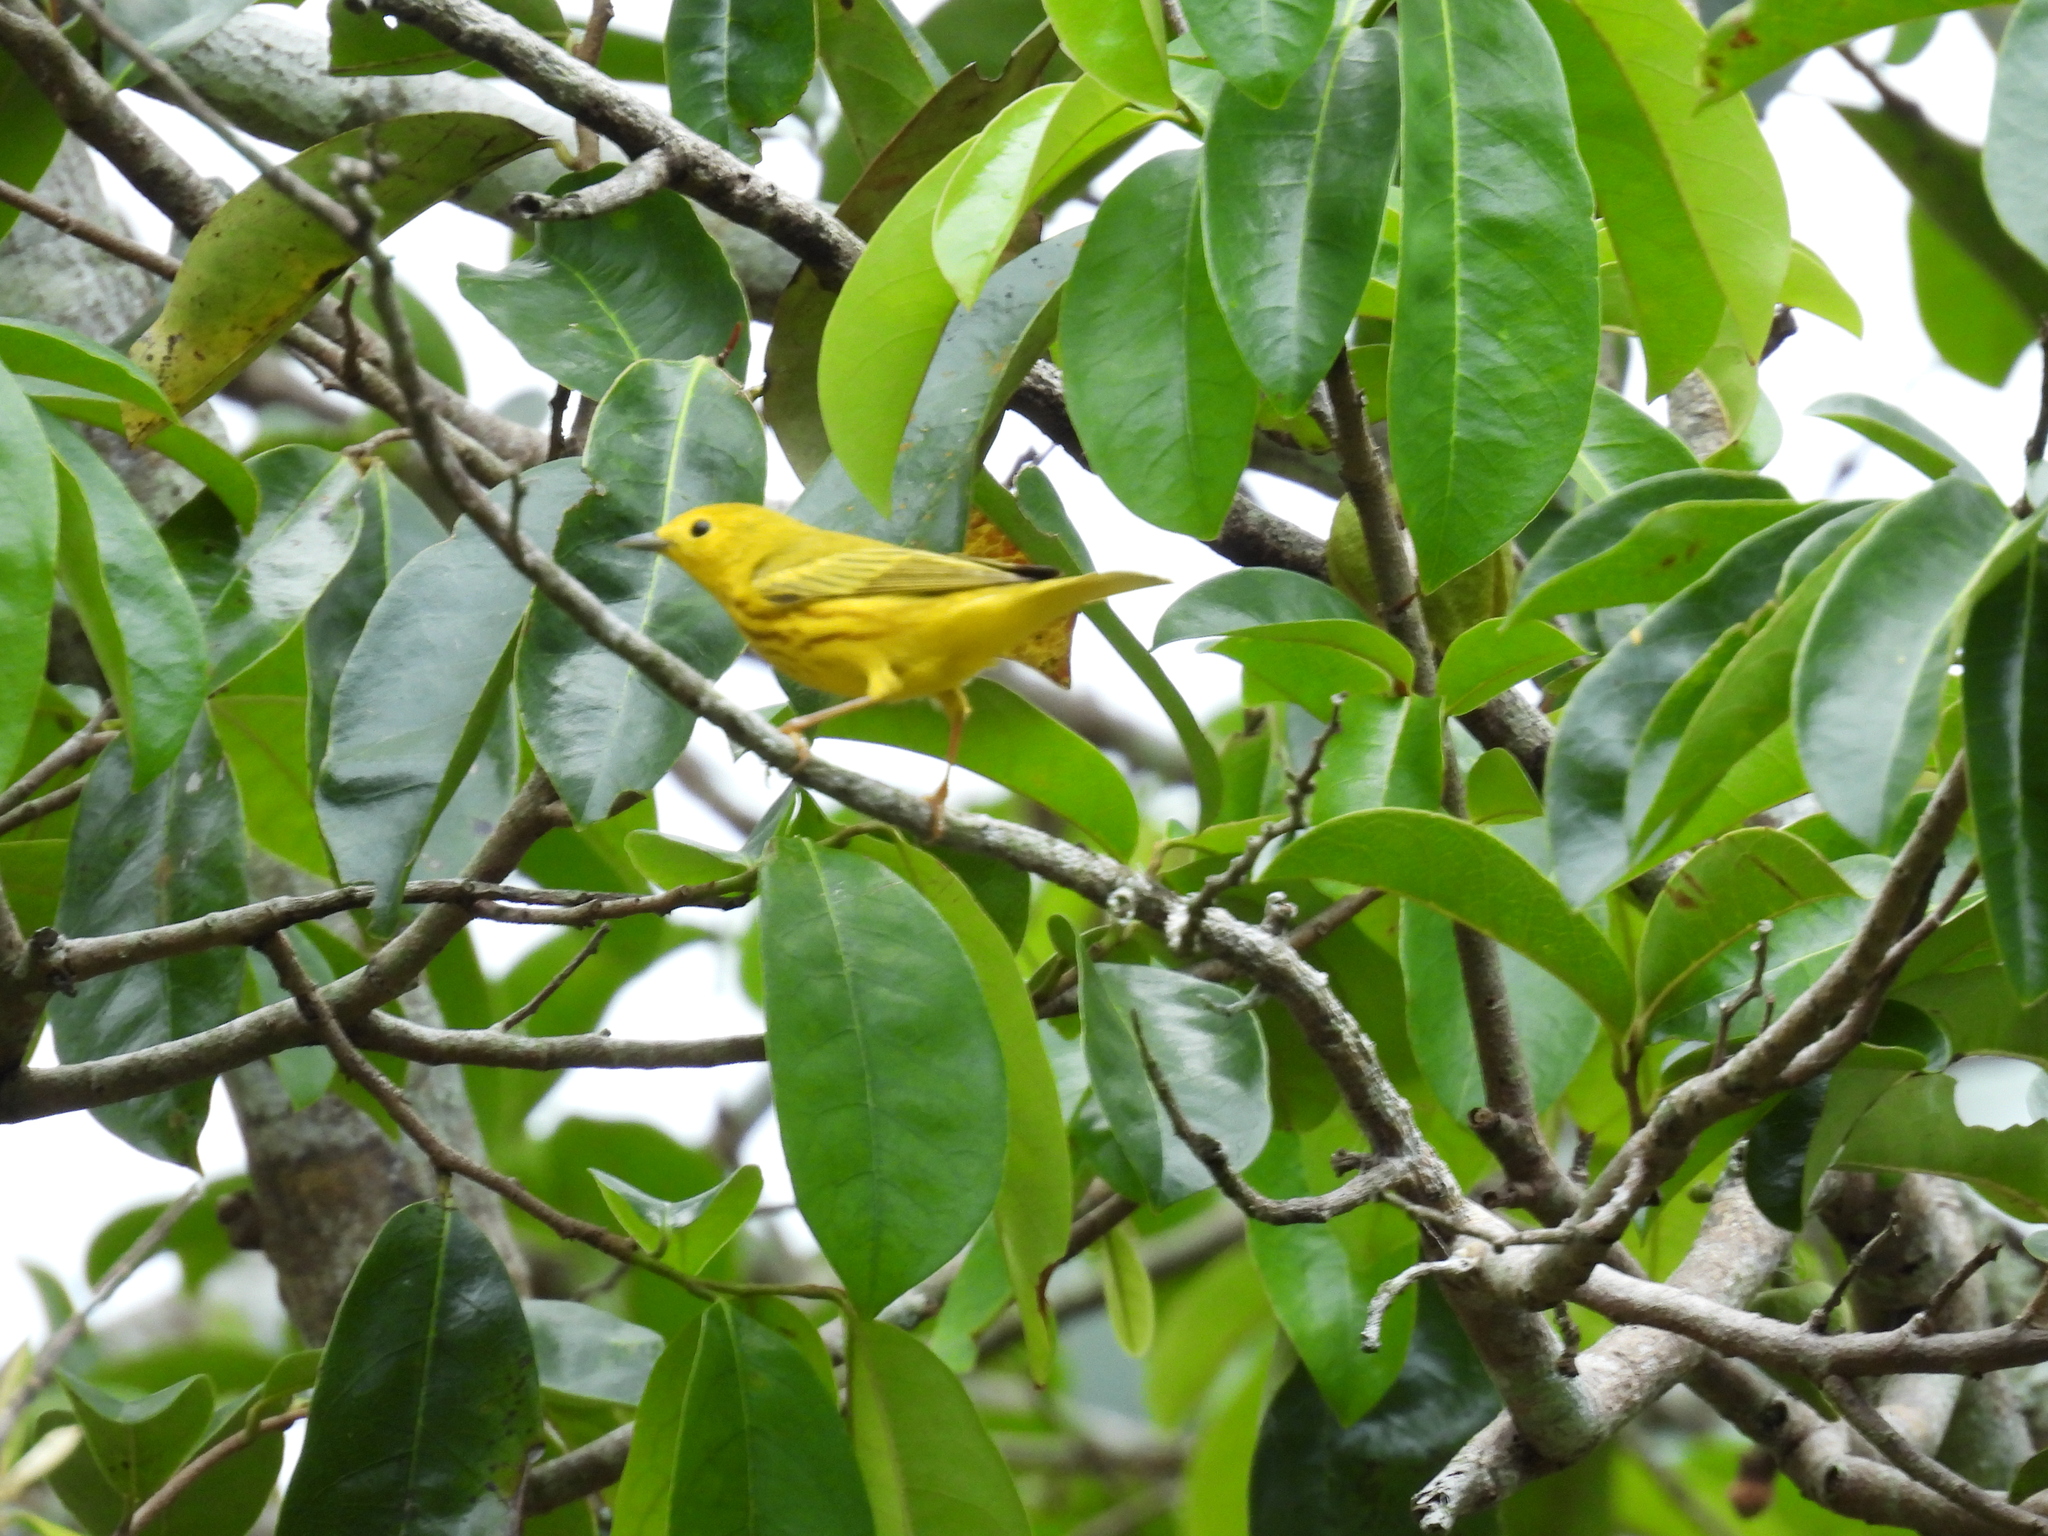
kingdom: Animalia
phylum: Chordata
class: Aves
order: Passeriformes
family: Parulidae
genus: Setophaga
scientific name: Setophaga petechia
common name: Yellow warbler
